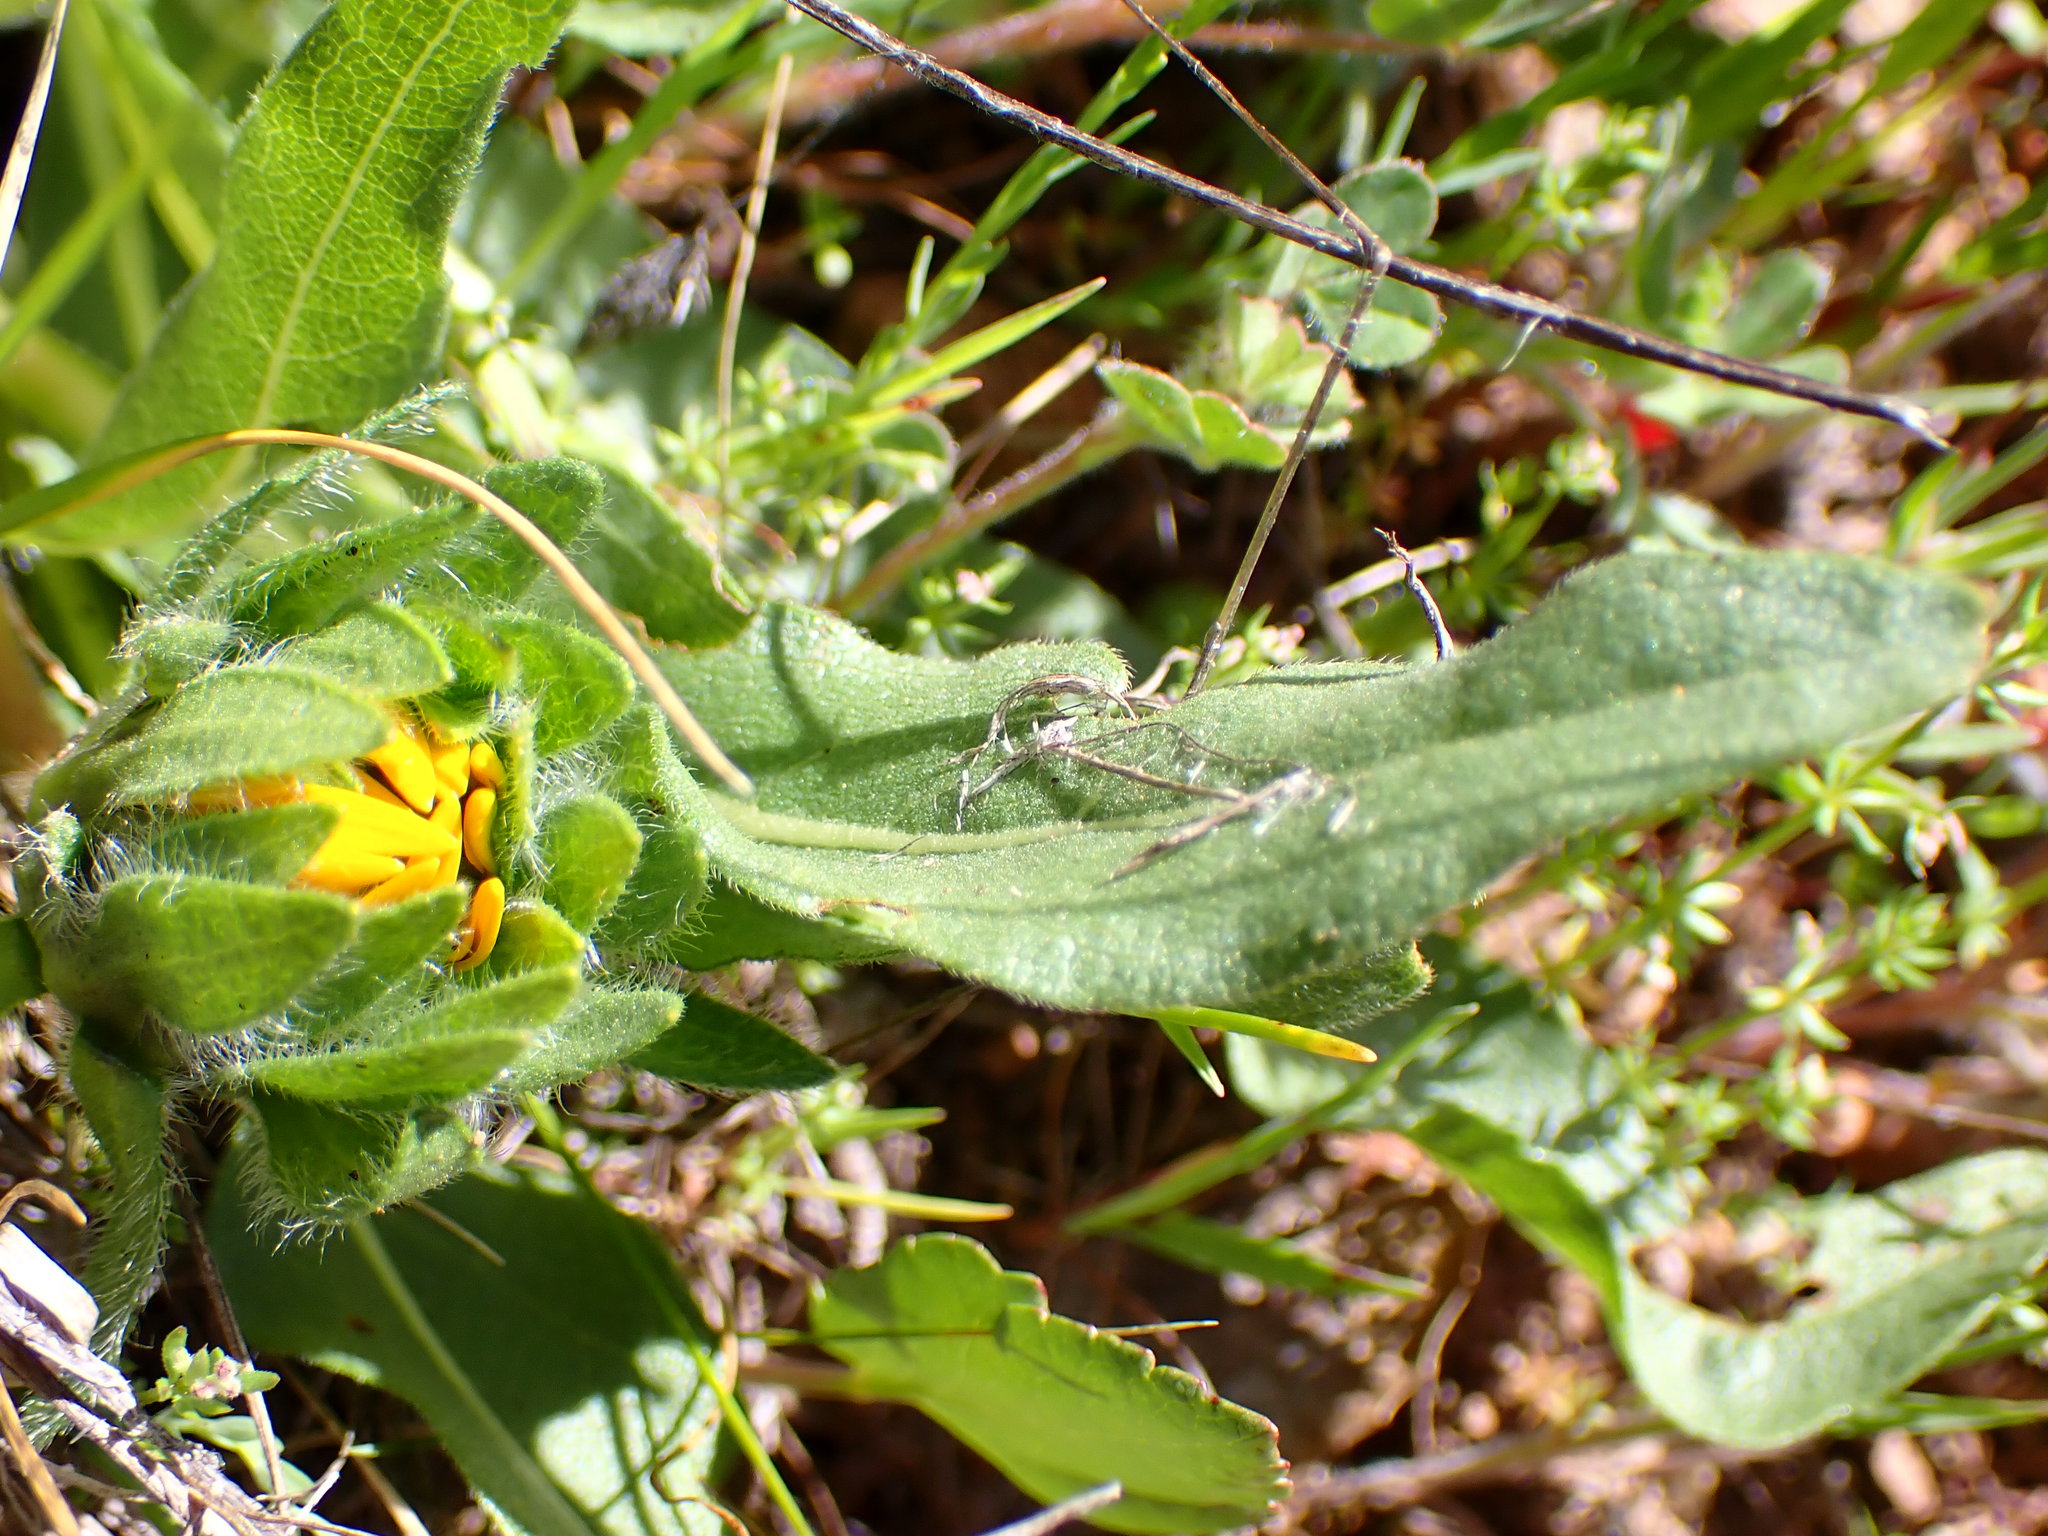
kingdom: Plantae
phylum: Tracheophyta
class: Magnoliopsida
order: Asterales
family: Asteraceae
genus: Wyethia
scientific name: Wyethia angustifolia
